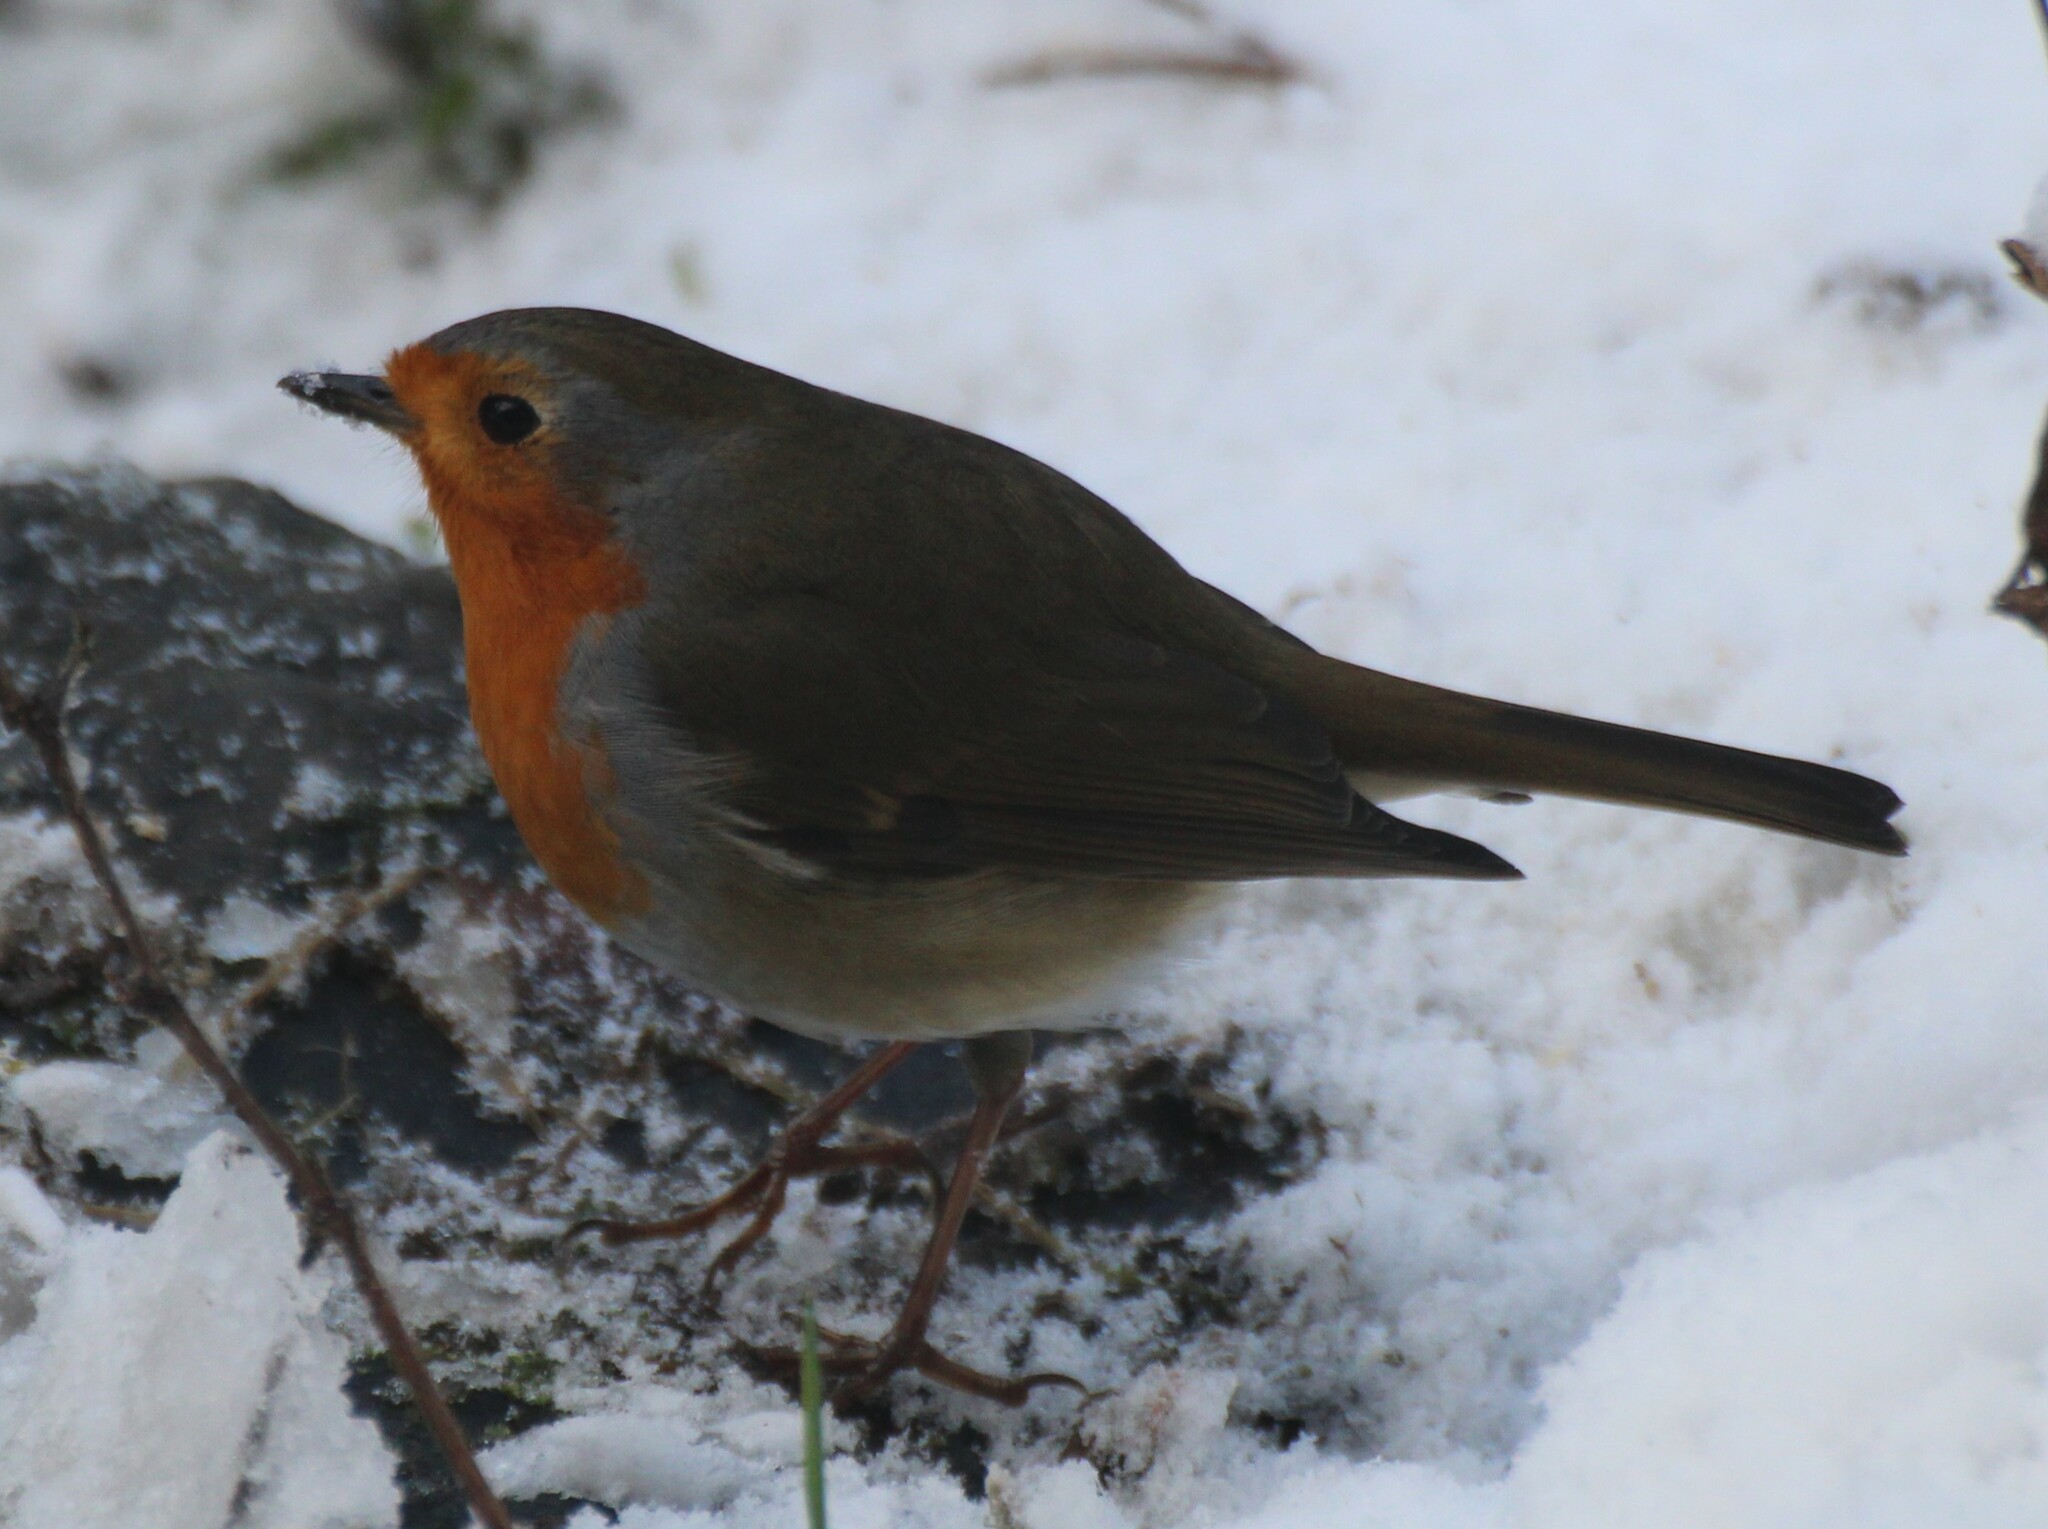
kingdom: Animalia
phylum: Chordata
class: Aves
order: Passeriformes
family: Muscicapidae
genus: Erithacus
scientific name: Erithacus rubecula
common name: European robin
